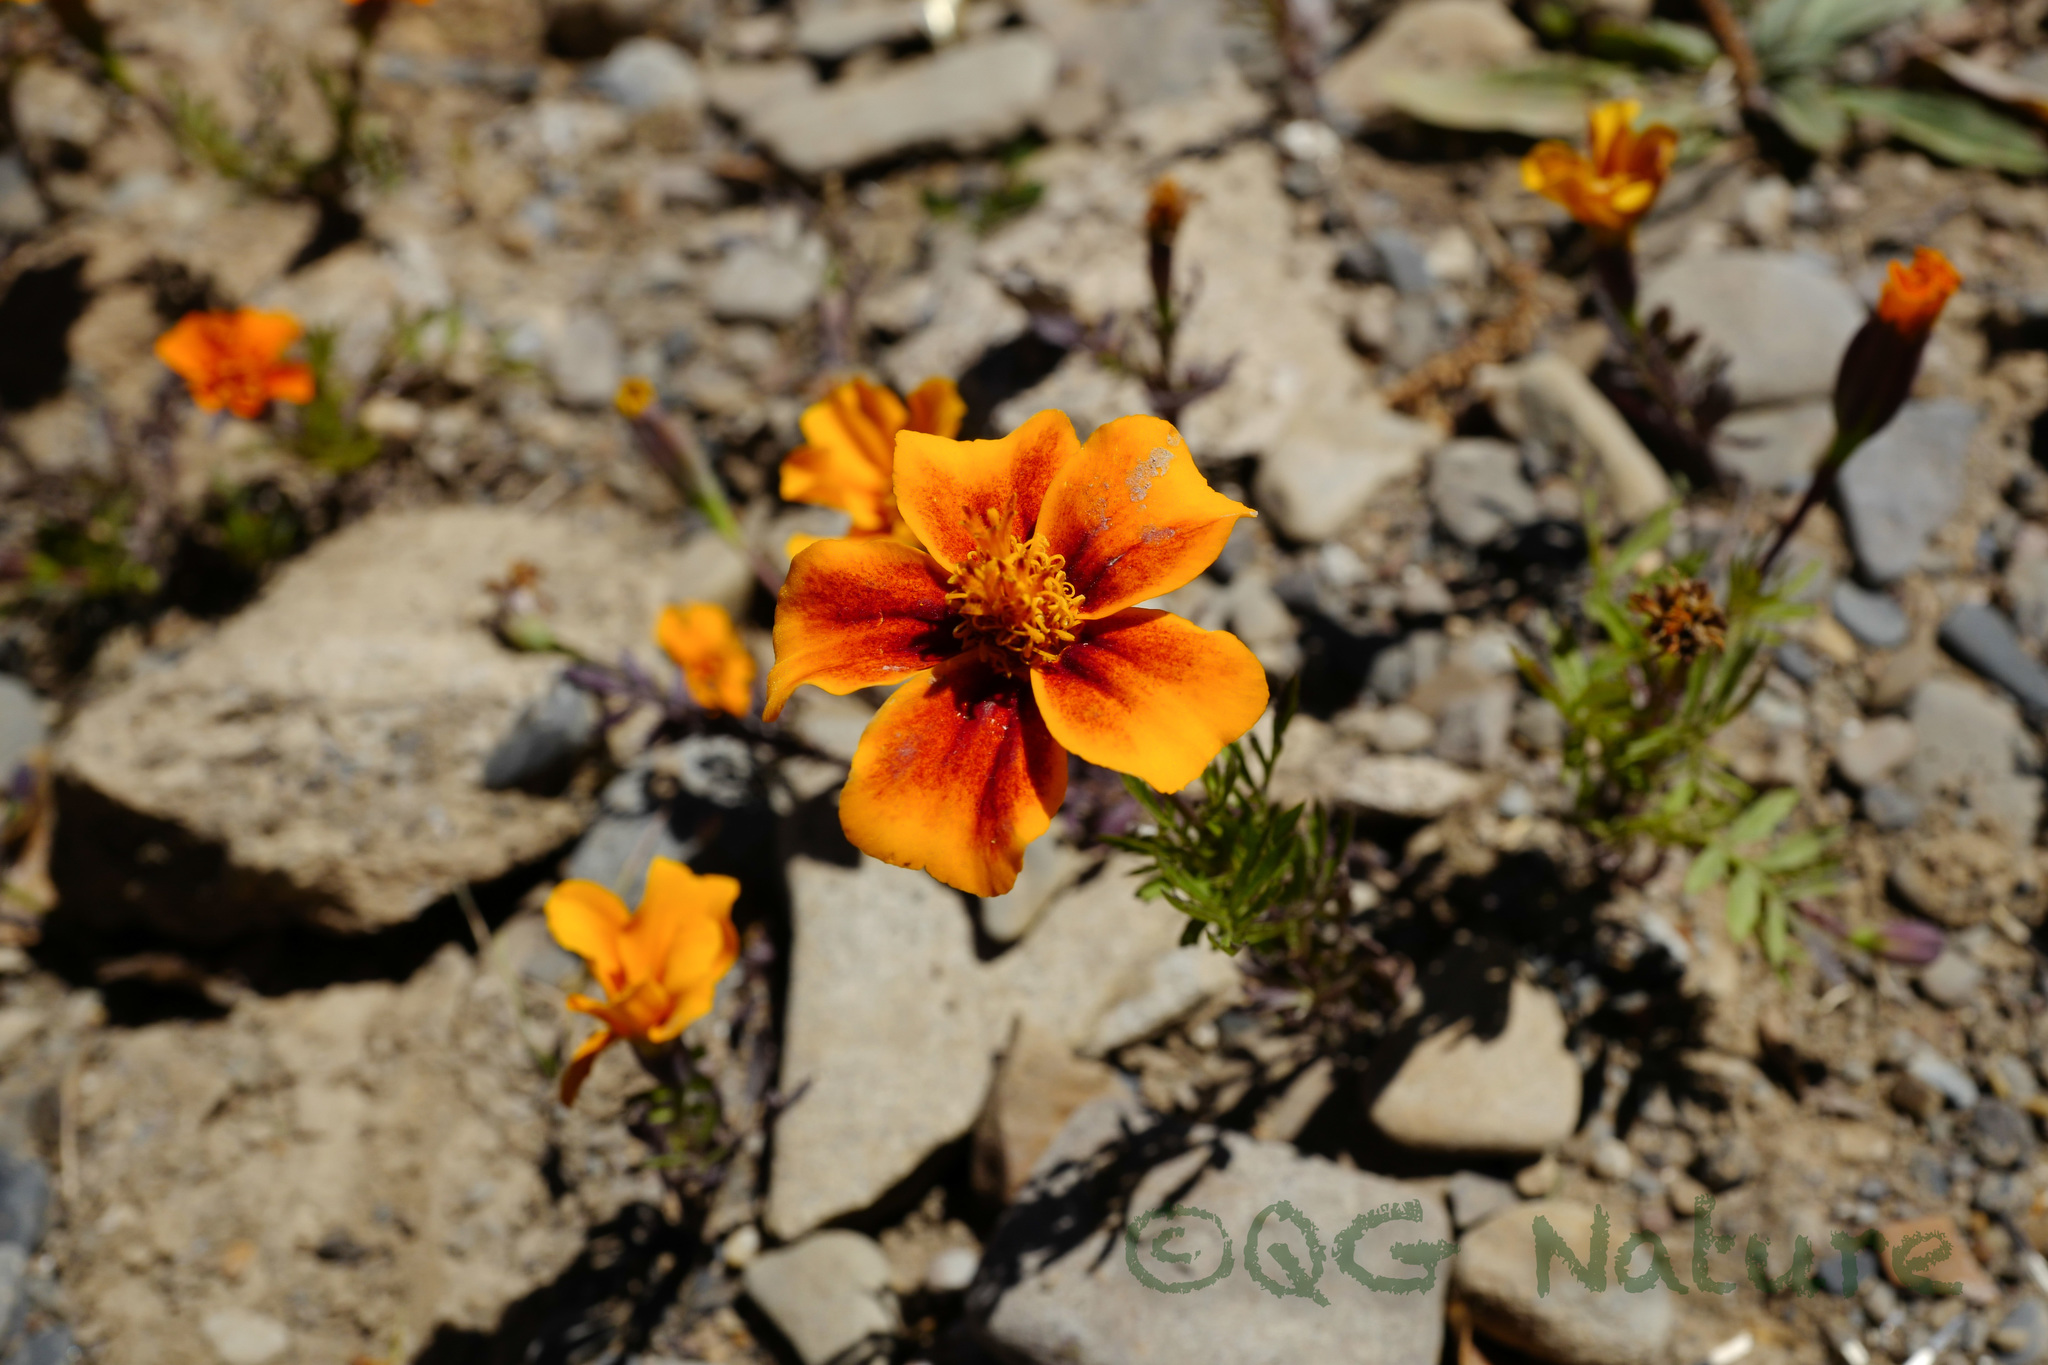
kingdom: Plantae
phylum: Tracheophyta
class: Magnoliopsida
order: Asterales
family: Asteraceae
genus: Tagetes
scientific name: Tagetes erecta
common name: African marigold
